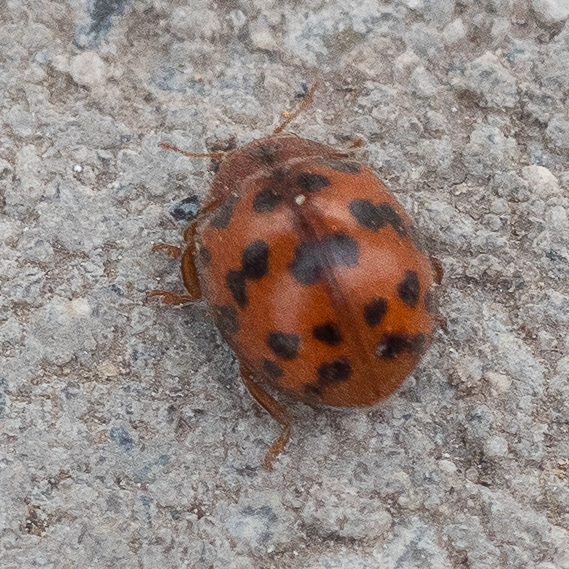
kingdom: Animalia
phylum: Arthropoda
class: Insecta
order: Coleoptera
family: Coccinellidae
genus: Subcoccinella
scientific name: Subcoccinella vigintiquatuorpunctata
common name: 24-spot ladybird
